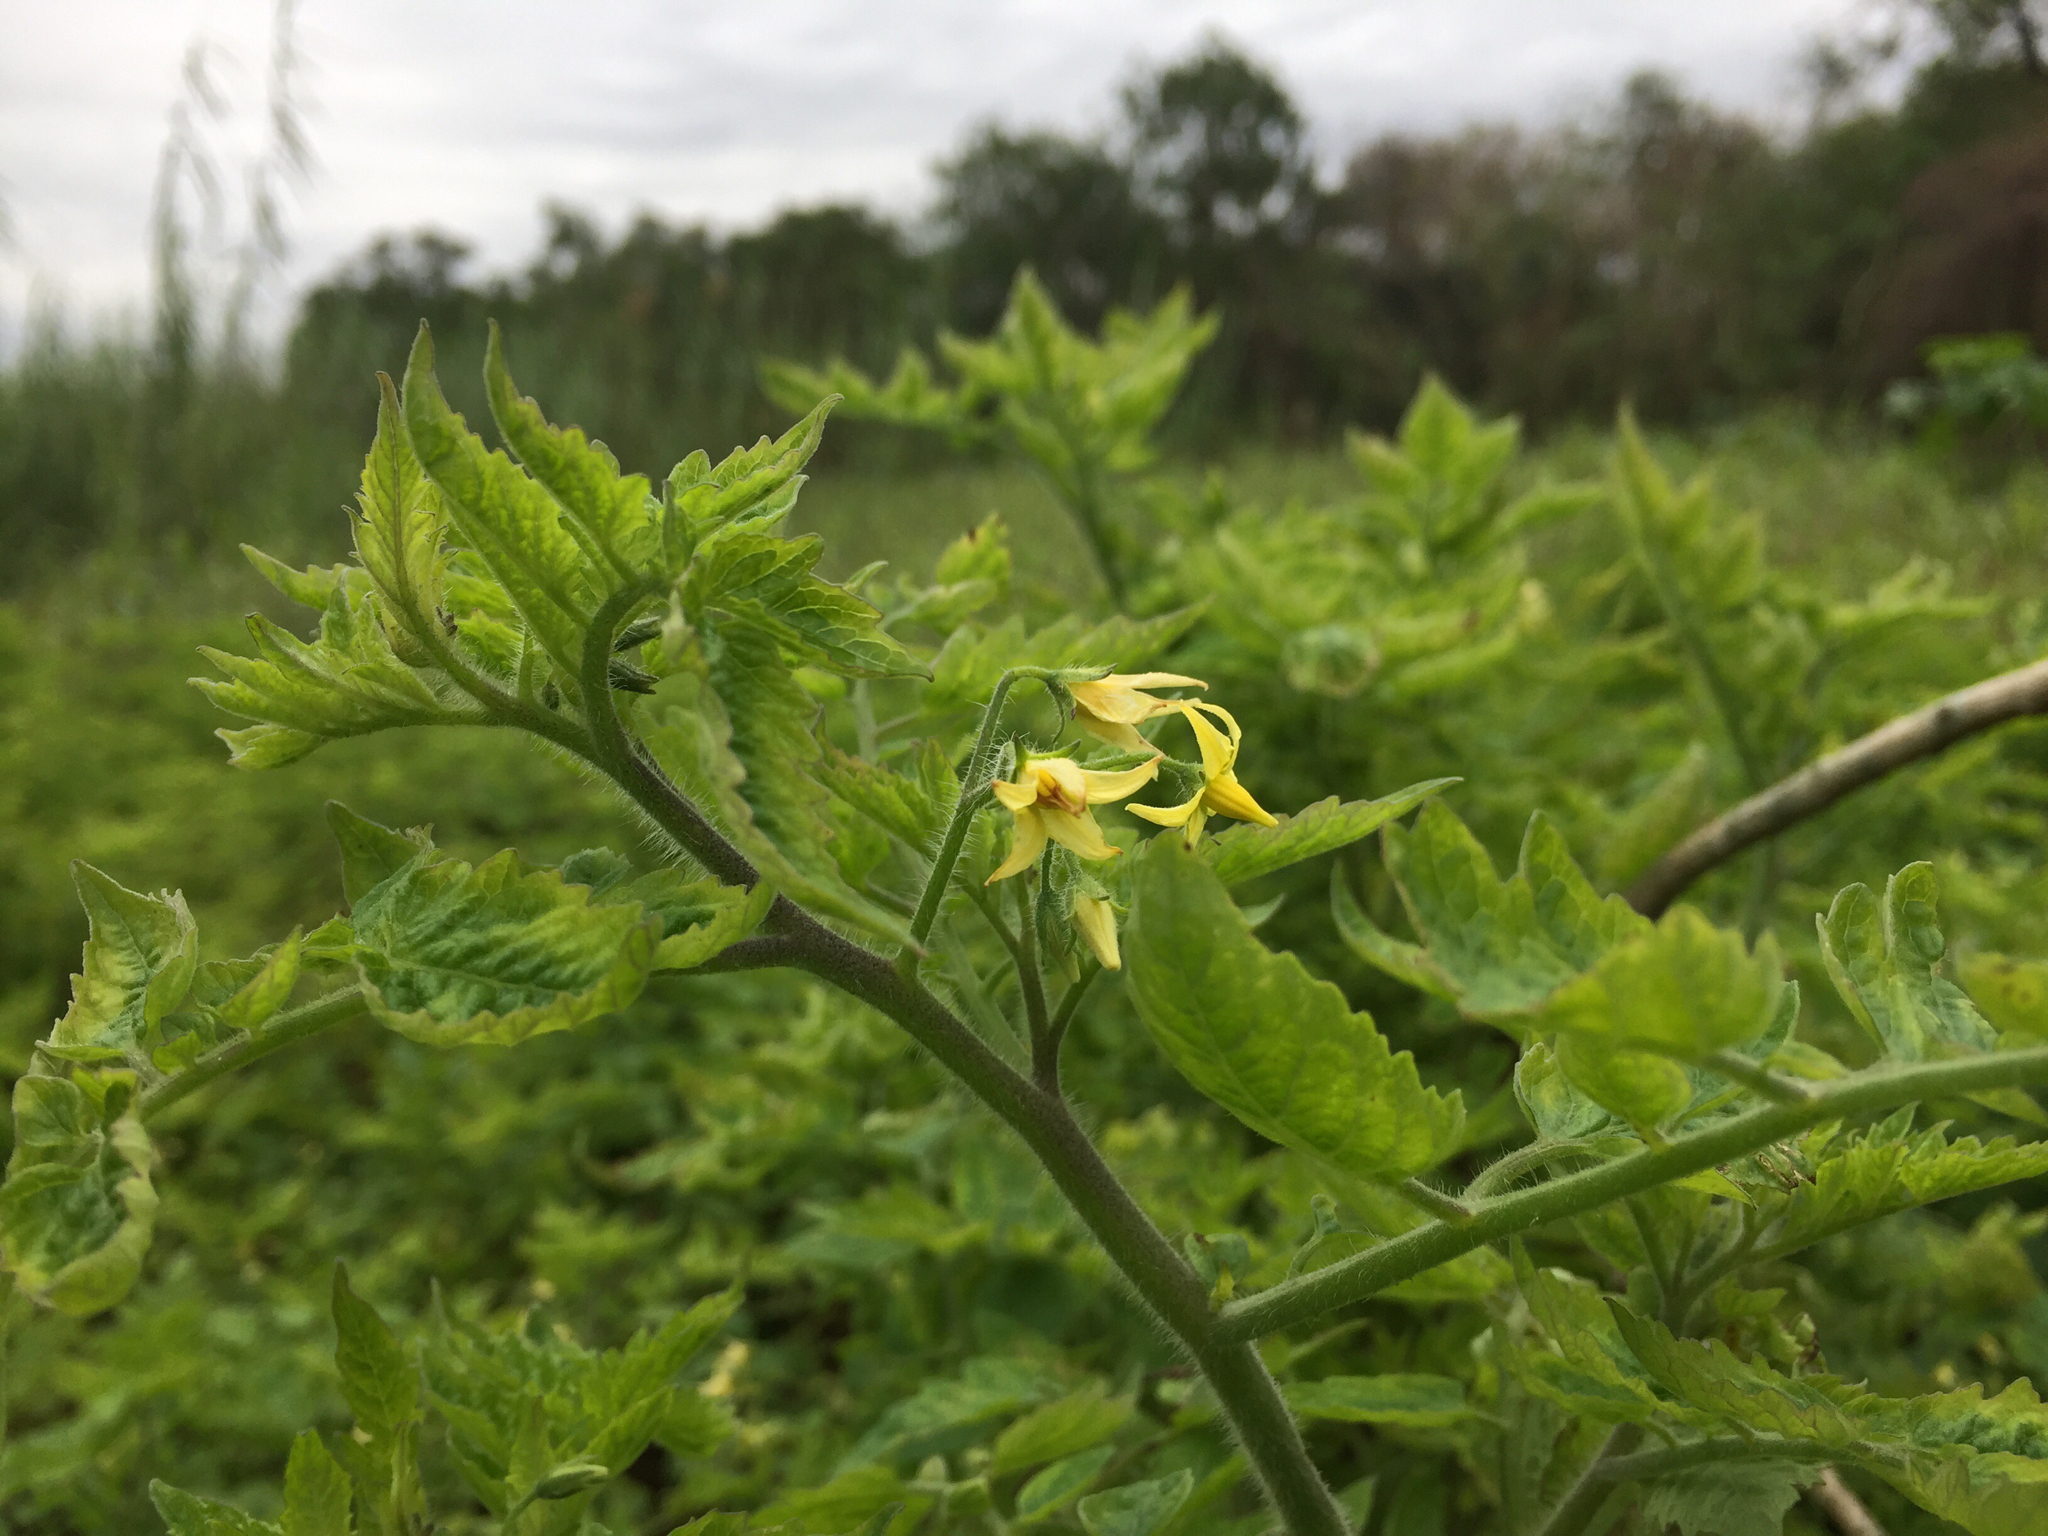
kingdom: Plantae
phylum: Tracheophyta
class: Magnoliopsida
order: Solanales
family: Solanaceae
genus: Solanum
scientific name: Solanum lycopersicum
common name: Garden tomato
